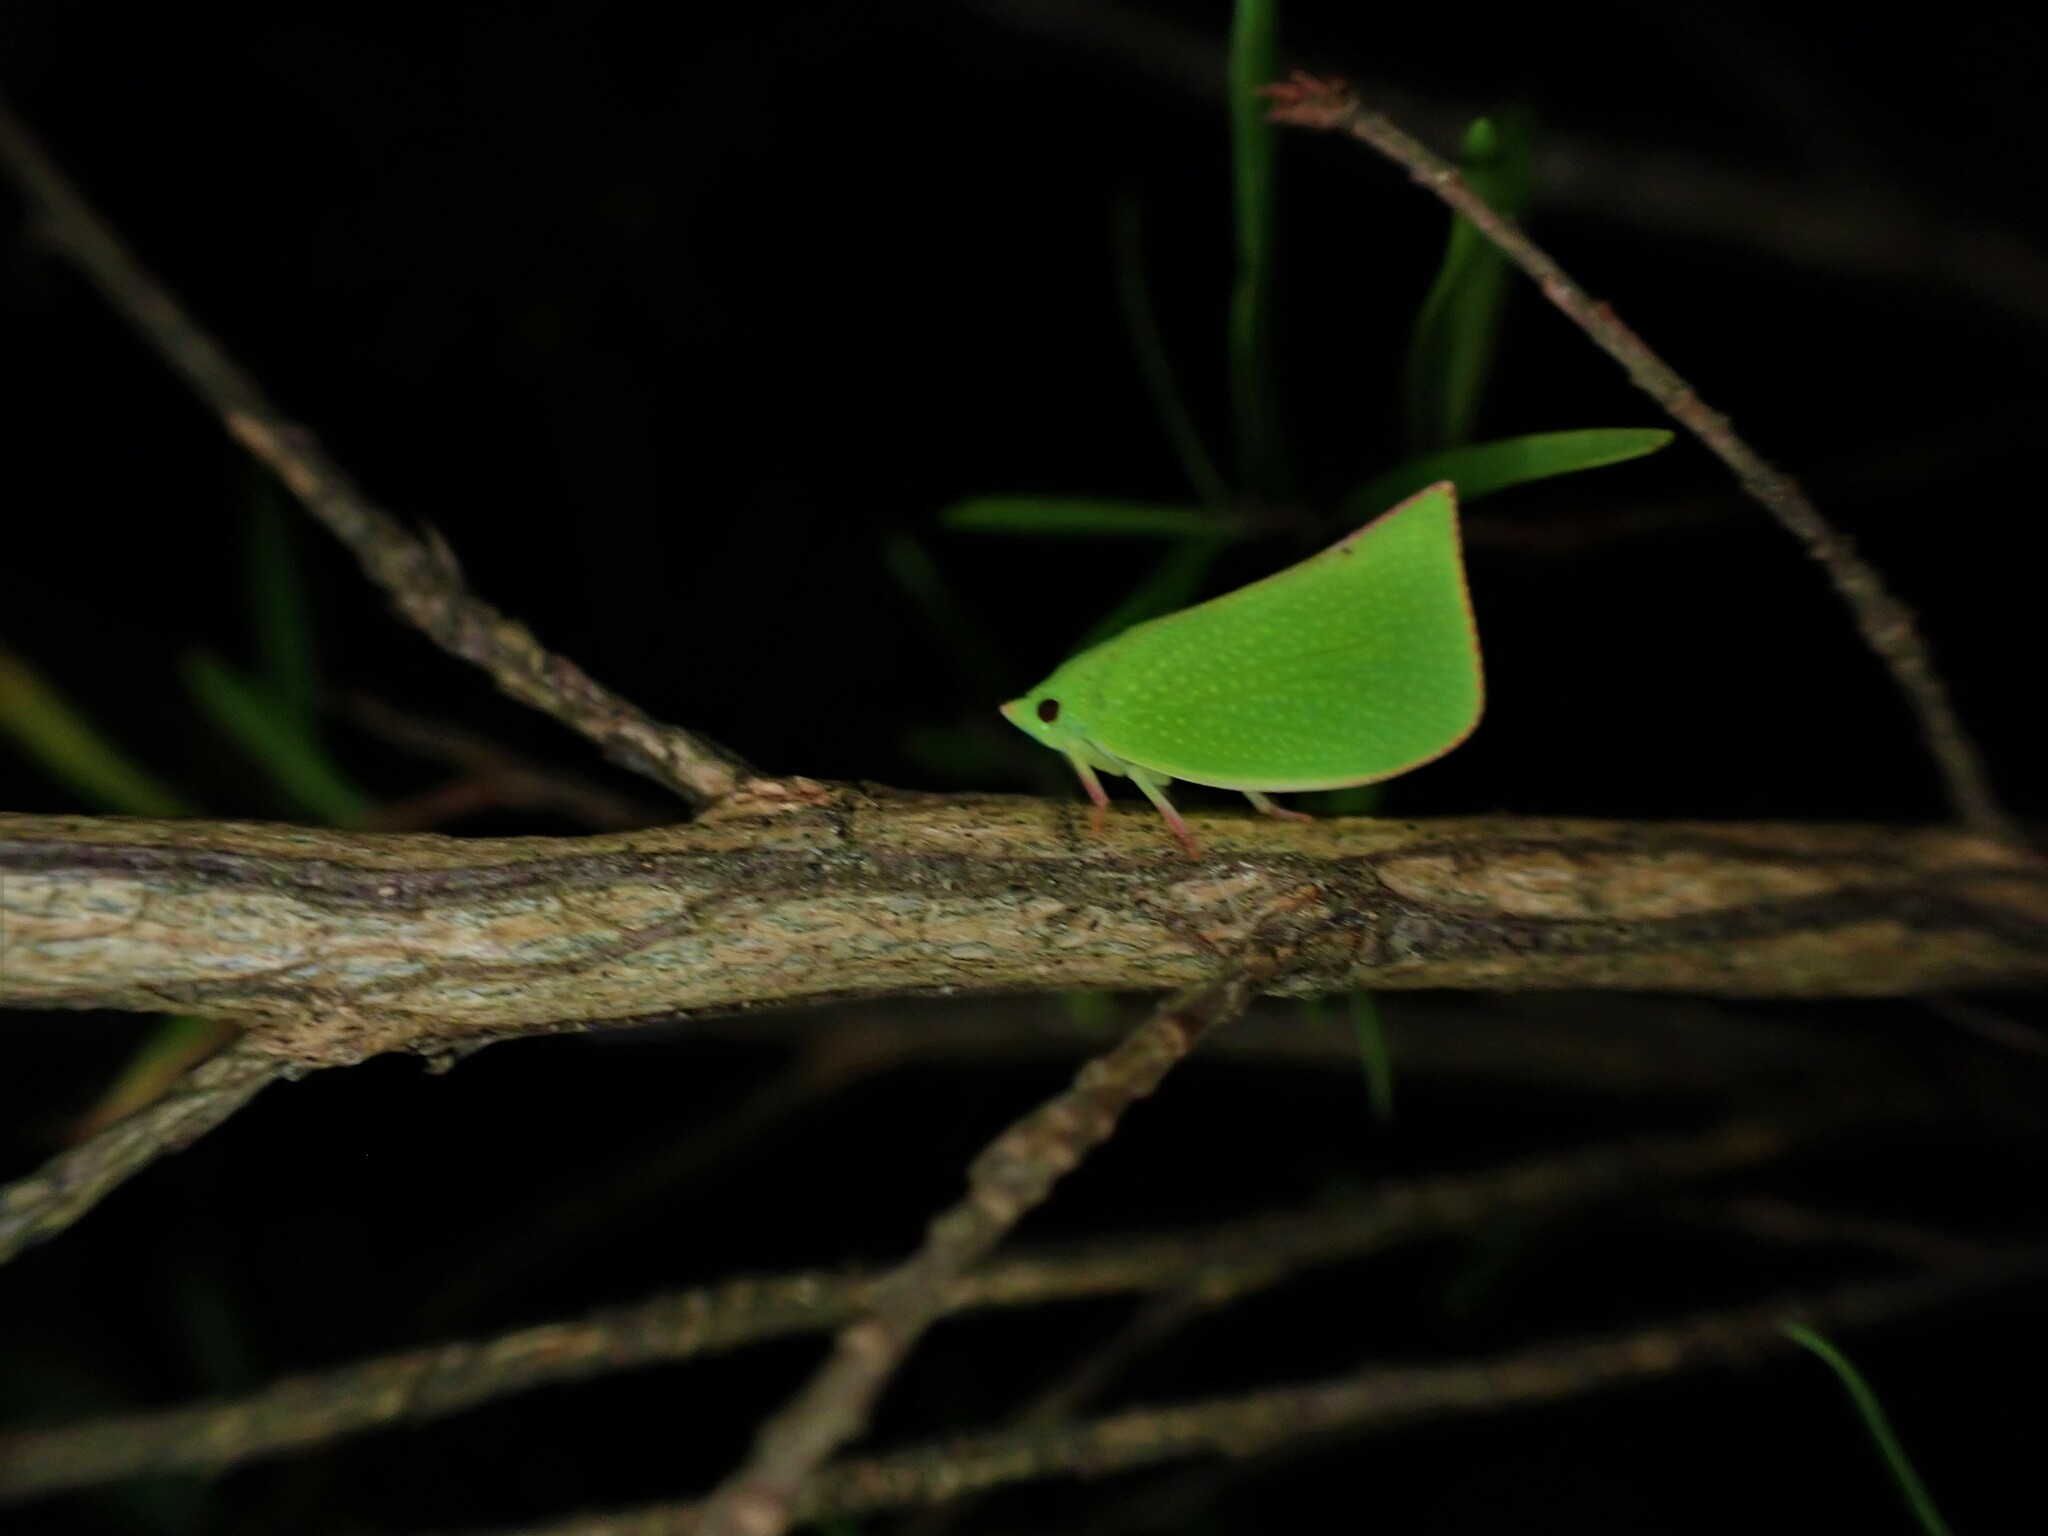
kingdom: Animalia
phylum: Arthropoda
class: Insecta
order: Hemiptera
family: Flatidae
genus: Siphanta
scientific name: Siphanta acuta
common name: Torpedo bug
